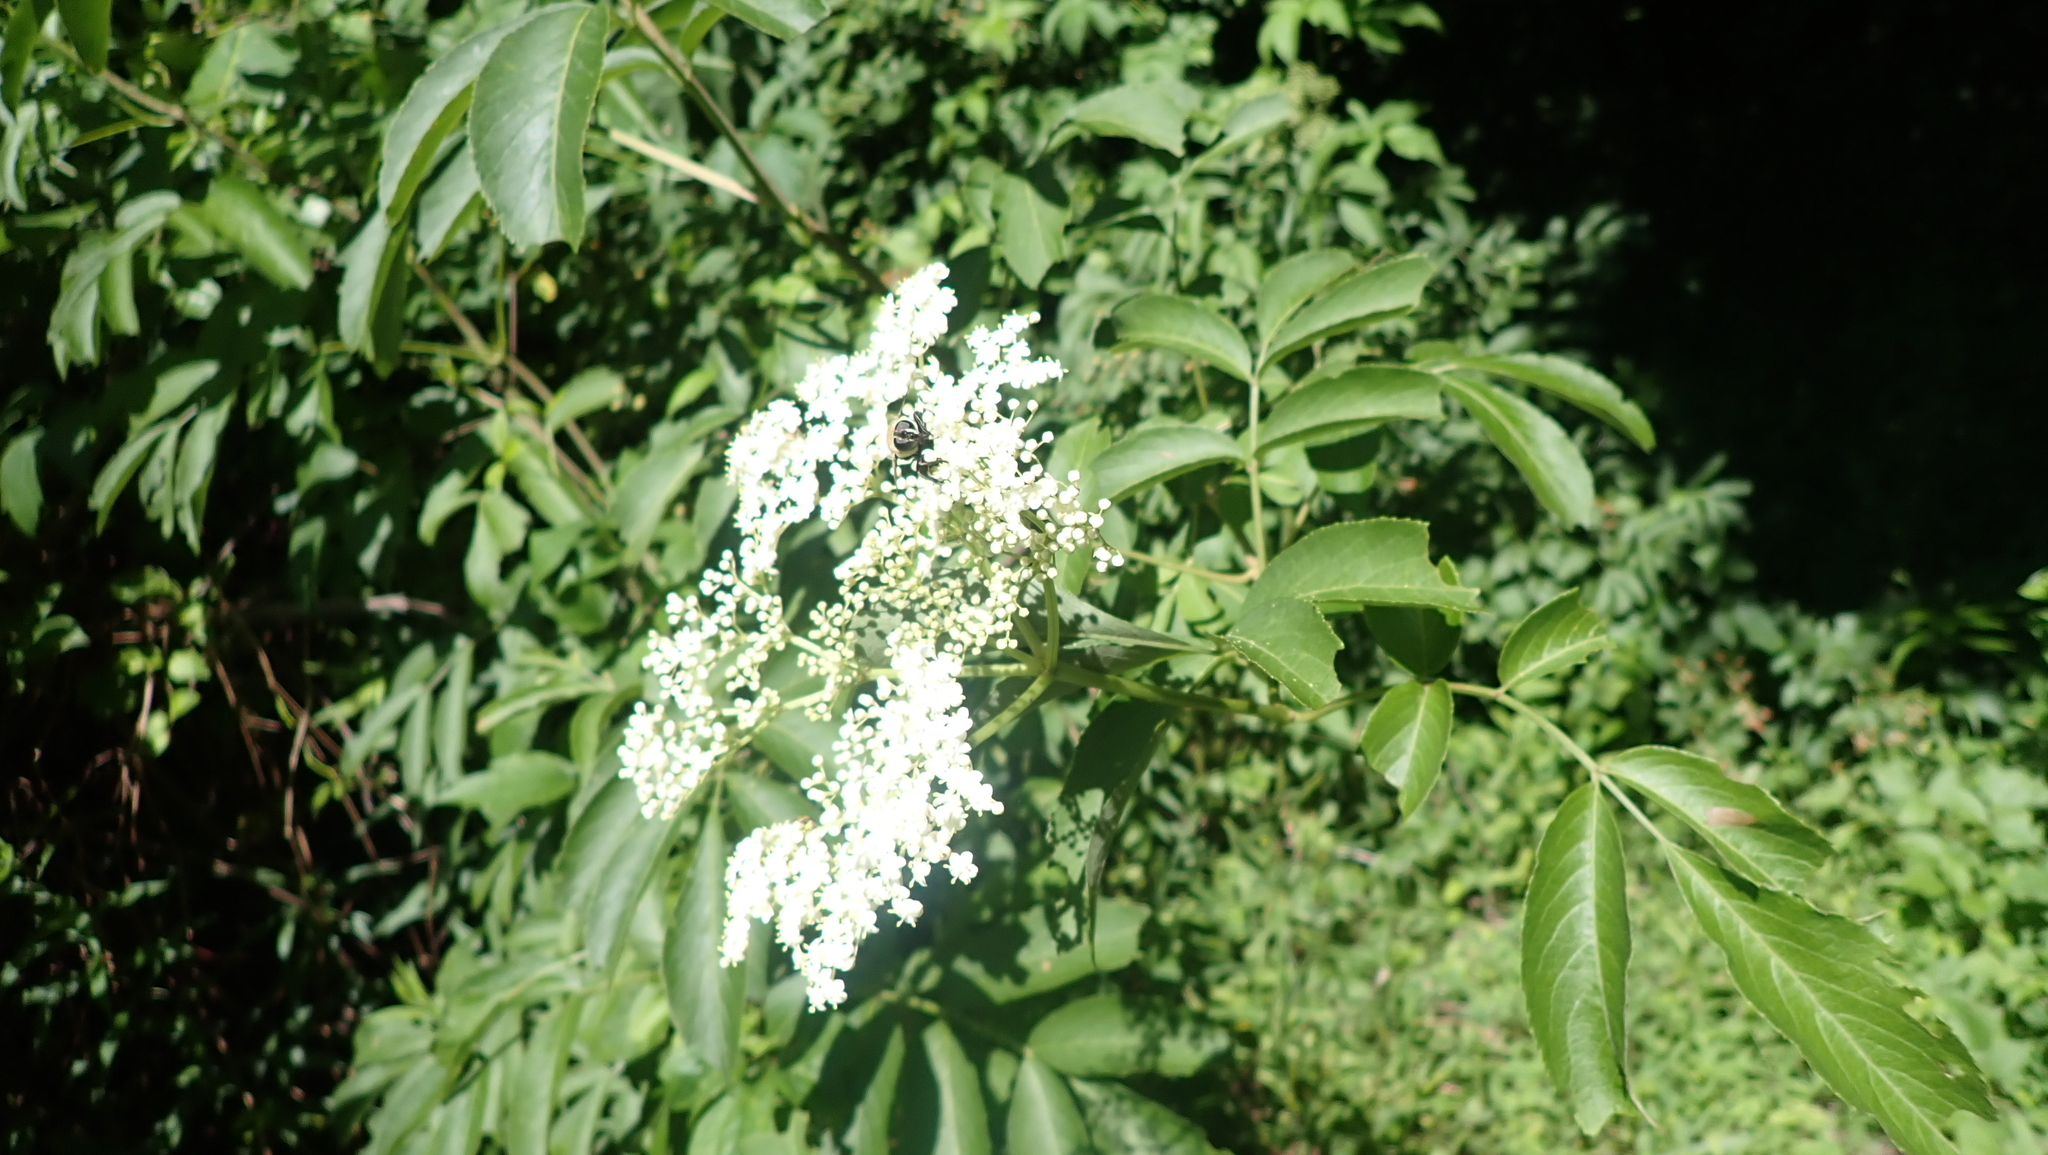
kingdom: Plantae
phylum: Tracheophyta
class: Magnoliopsida
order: Dipsacales
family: Viburnaceae
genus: Sambucus
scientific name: Sambucus canadensis
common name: American elder
